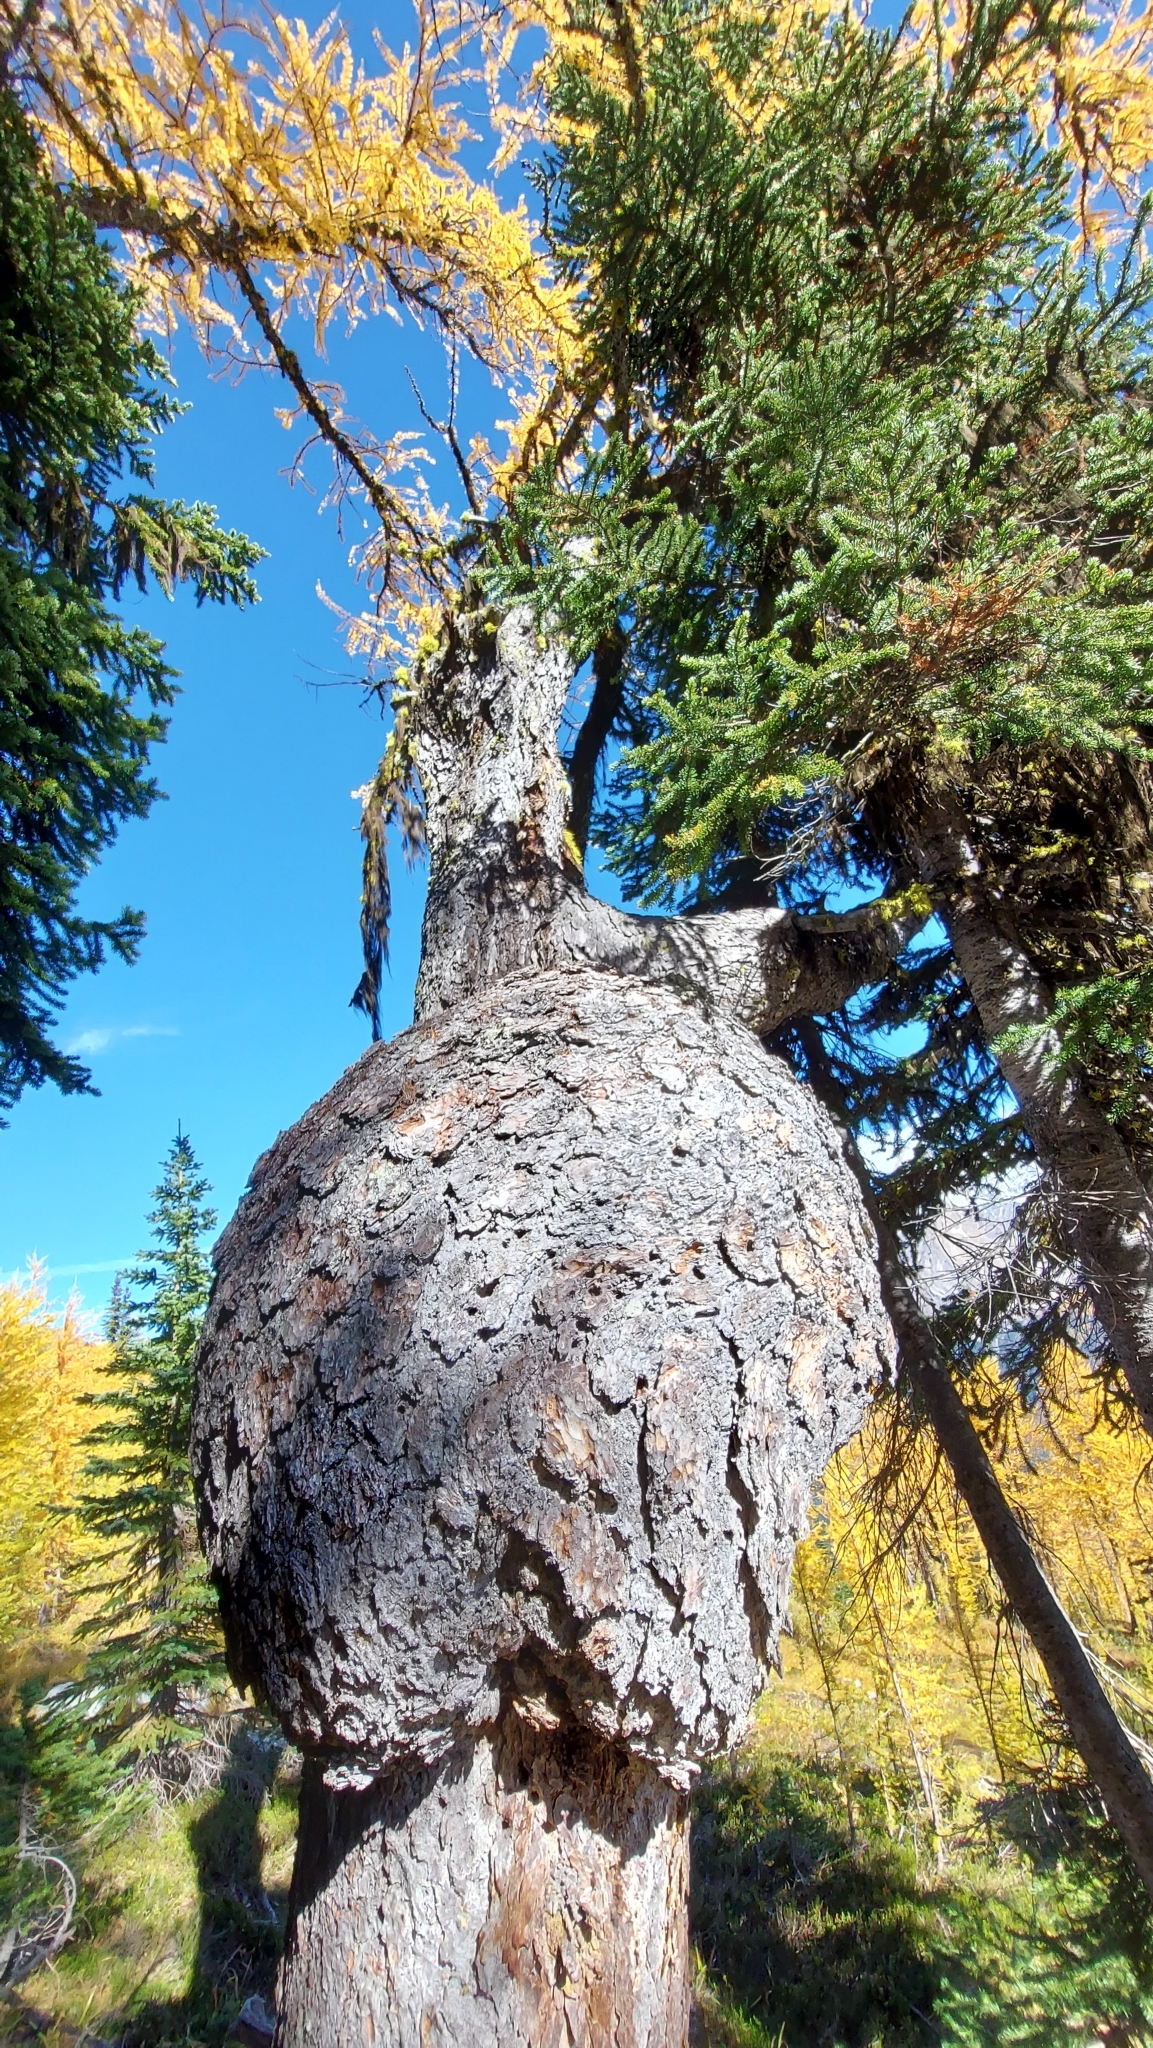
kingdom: Plantae
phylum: Tracheophyta
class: Pinopsida
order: Pinales
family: Pinaceae
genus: Larix
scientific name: Larix lyallii
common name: Alpine larch
